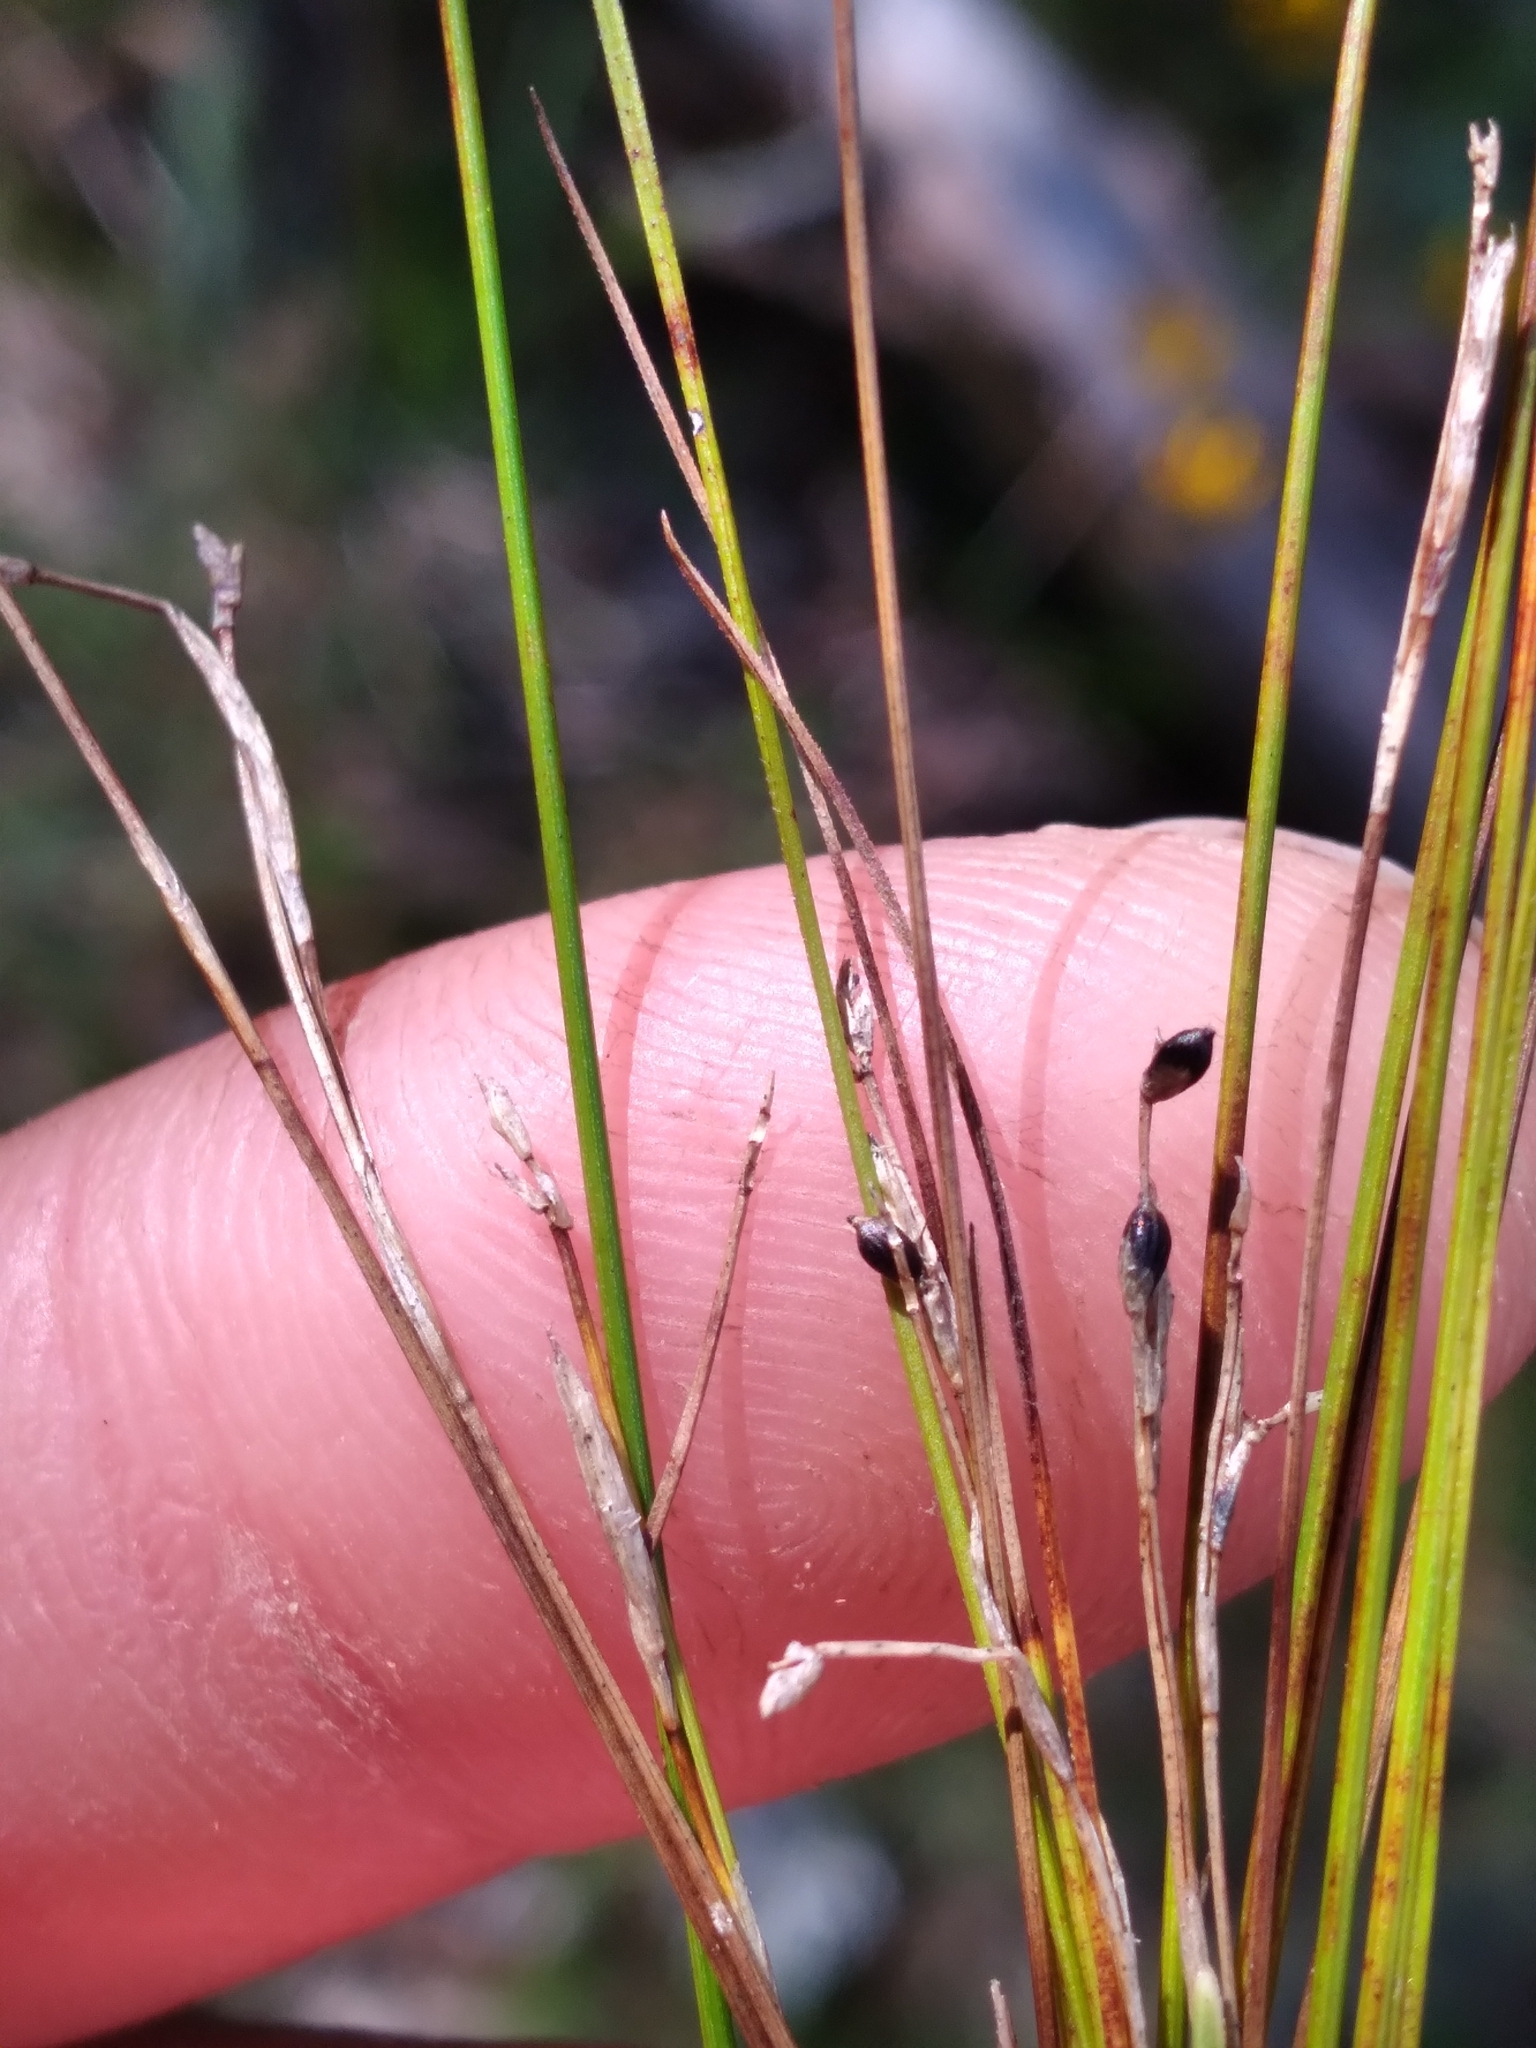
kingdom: Plantae
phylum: Tracheophyta
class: Liliopsida
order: Poales
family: Cyperaceae
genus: Carex
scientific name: Carex eburnea
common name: Bristle-leaved sedge
